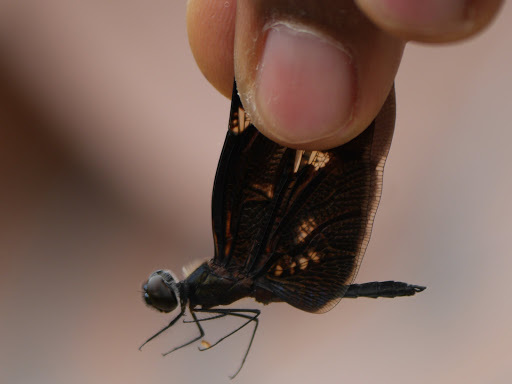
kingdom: Animalia
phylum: Arthropoda
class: Insecta
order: Odonata
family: Libellulidae
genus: Rhyothemis
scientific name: Rhyothemis fenestrina
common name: Skylight flutterer
